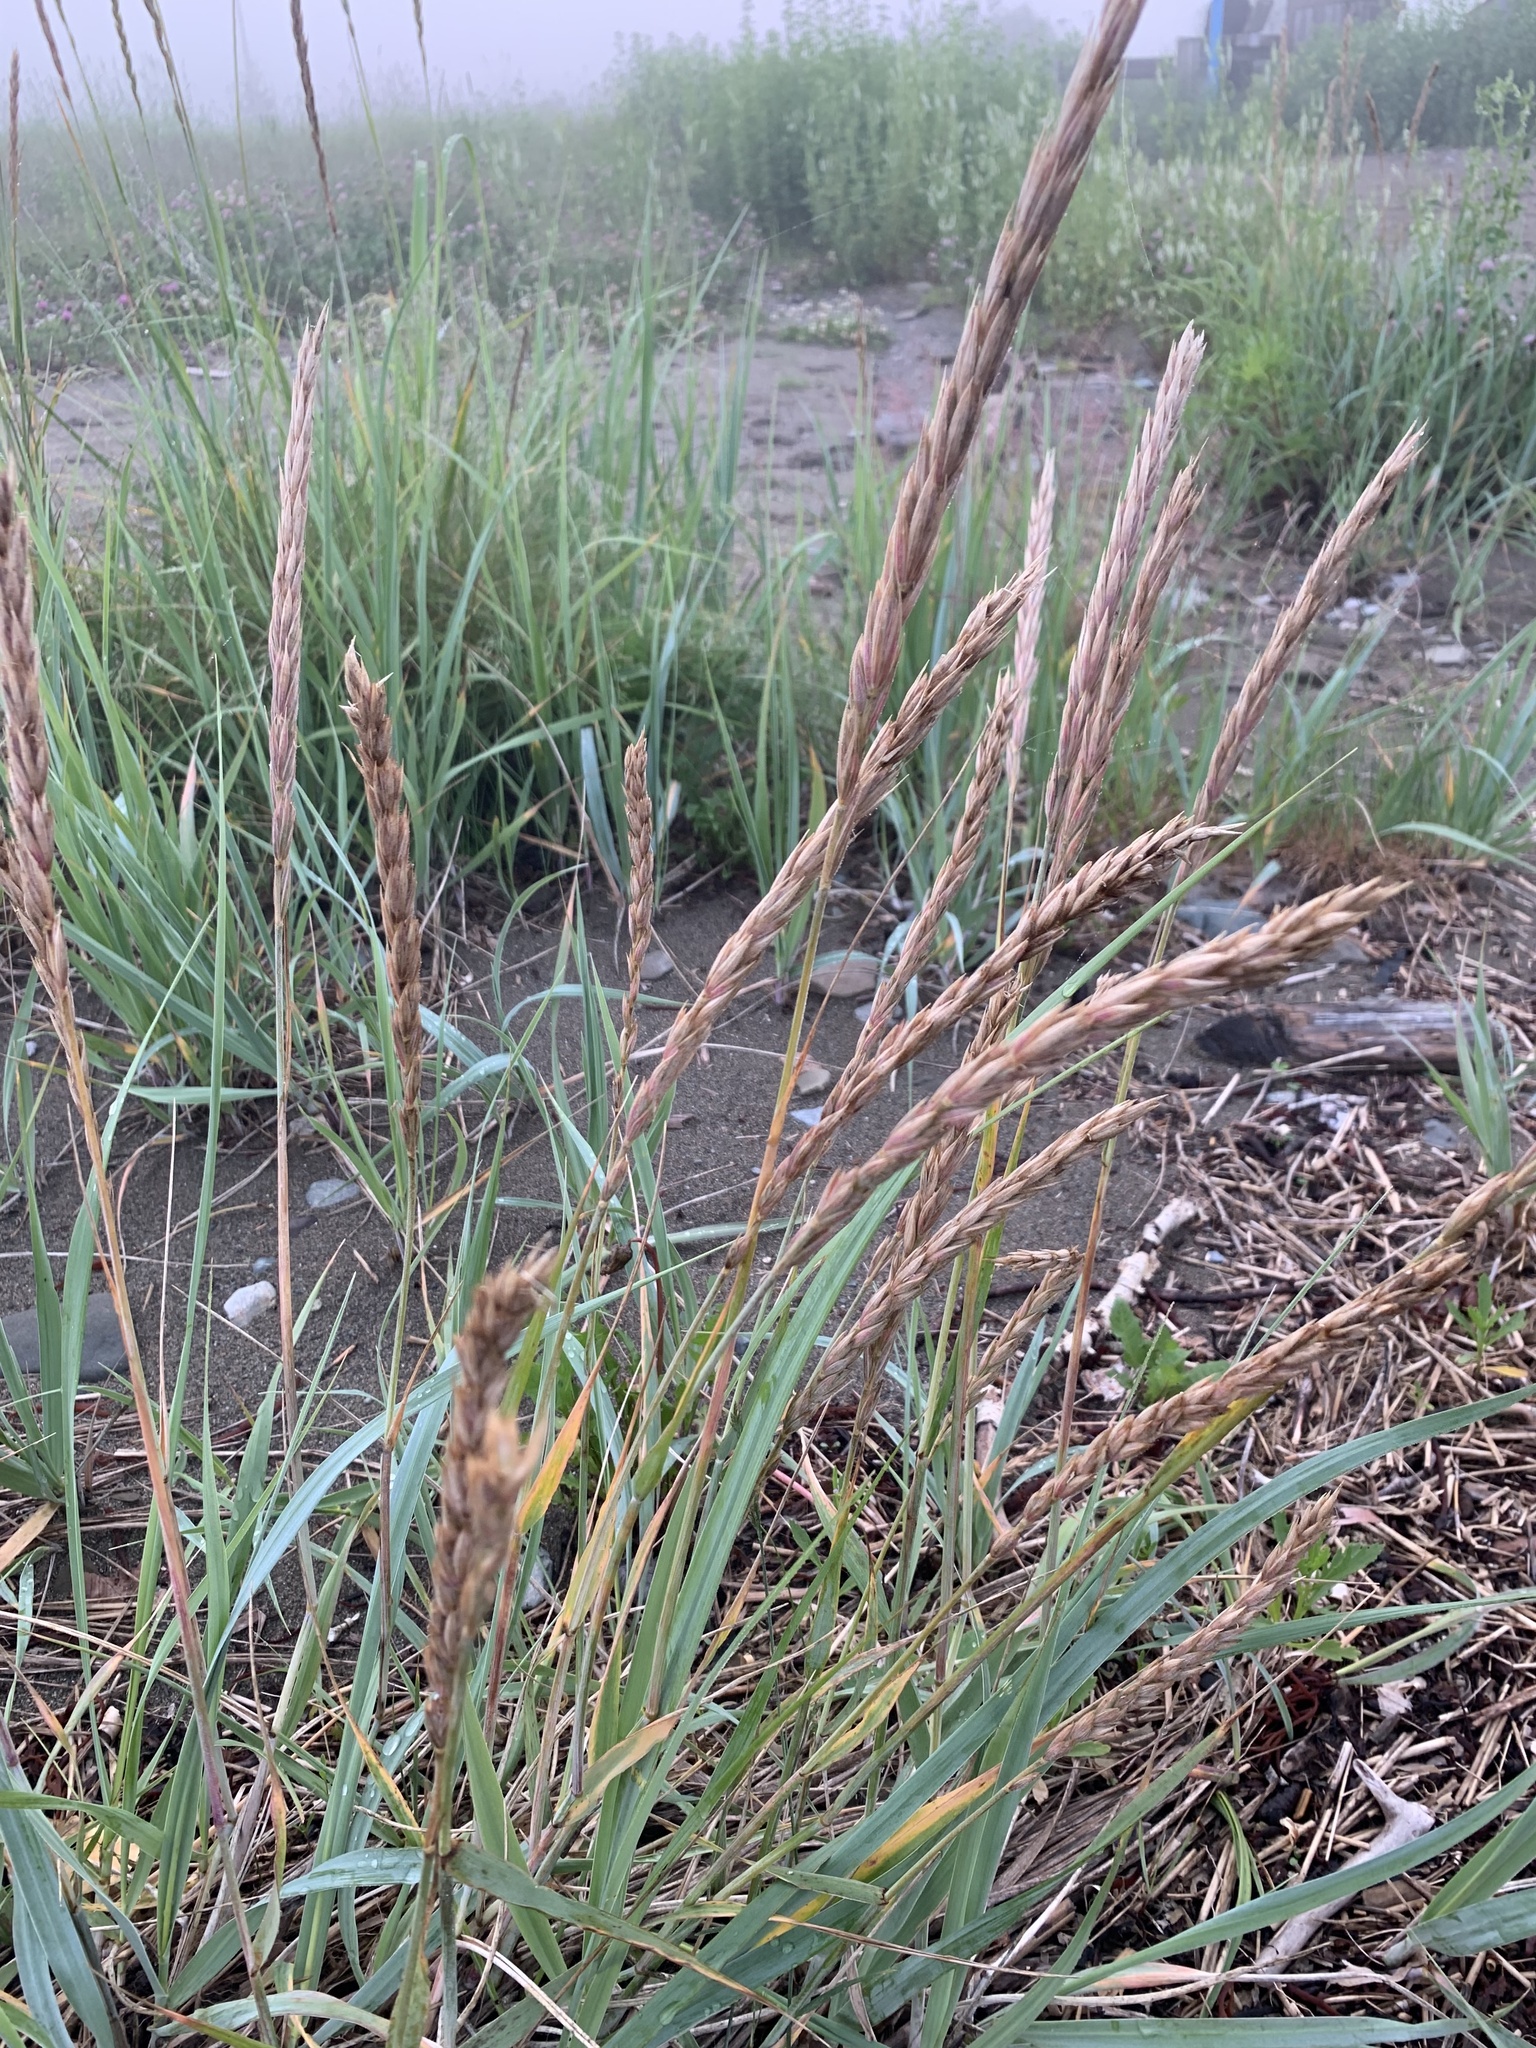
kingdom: Plantae
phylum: Tracheophyta
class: Liliopsida
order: Poales
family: Poaceae
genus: Leymus
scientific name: Leymus mollis
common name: American dune grass
